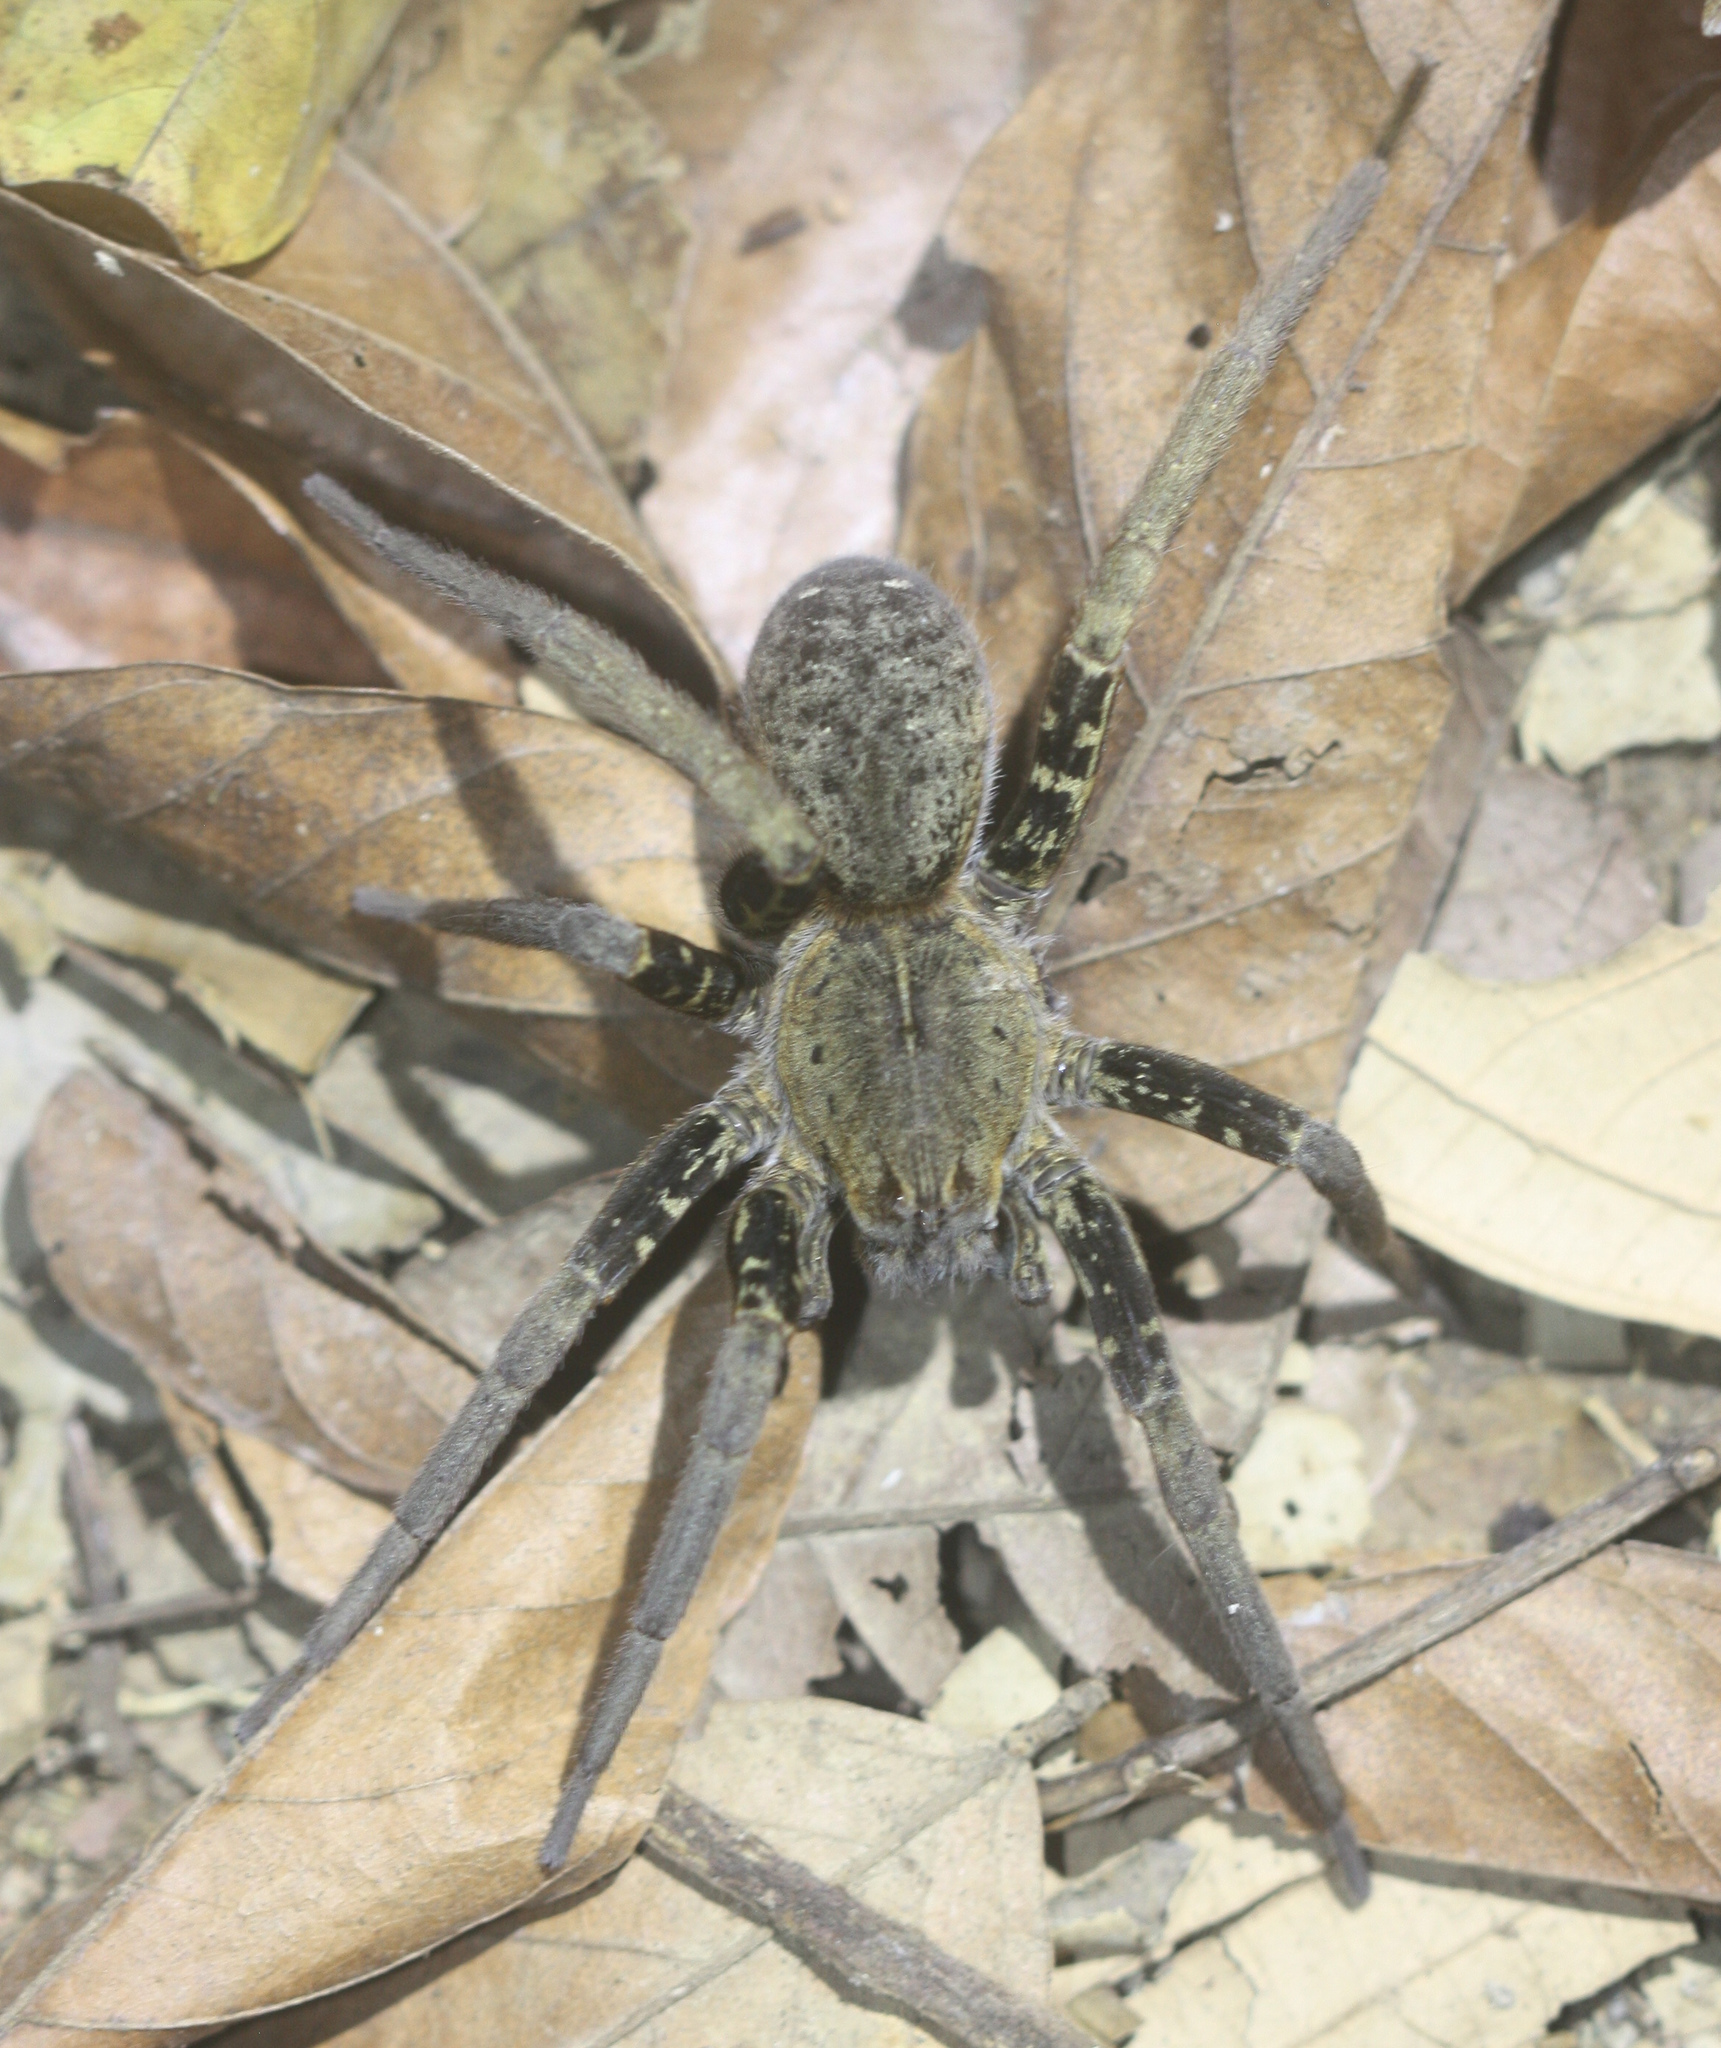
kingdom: Animalia
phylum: Arthropoda
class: Arachnida
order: Araneae
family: Ctenidae
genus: Ancylometes
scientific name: Ancylometes bogotensis
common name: Wandering spiders
